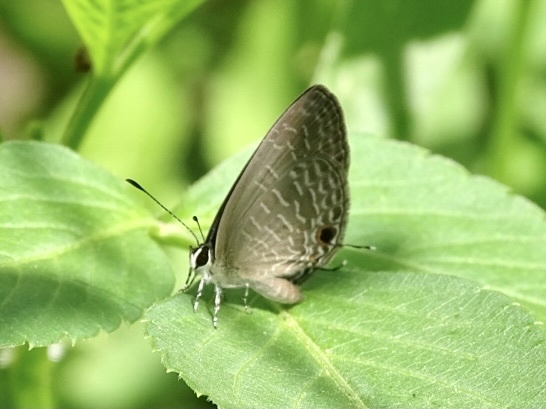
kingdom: Animalia
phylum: Arthropoda
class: Insecta
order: Lepidoptera
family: Lycaenidae
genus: Jamides
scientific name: Jamides bochus
